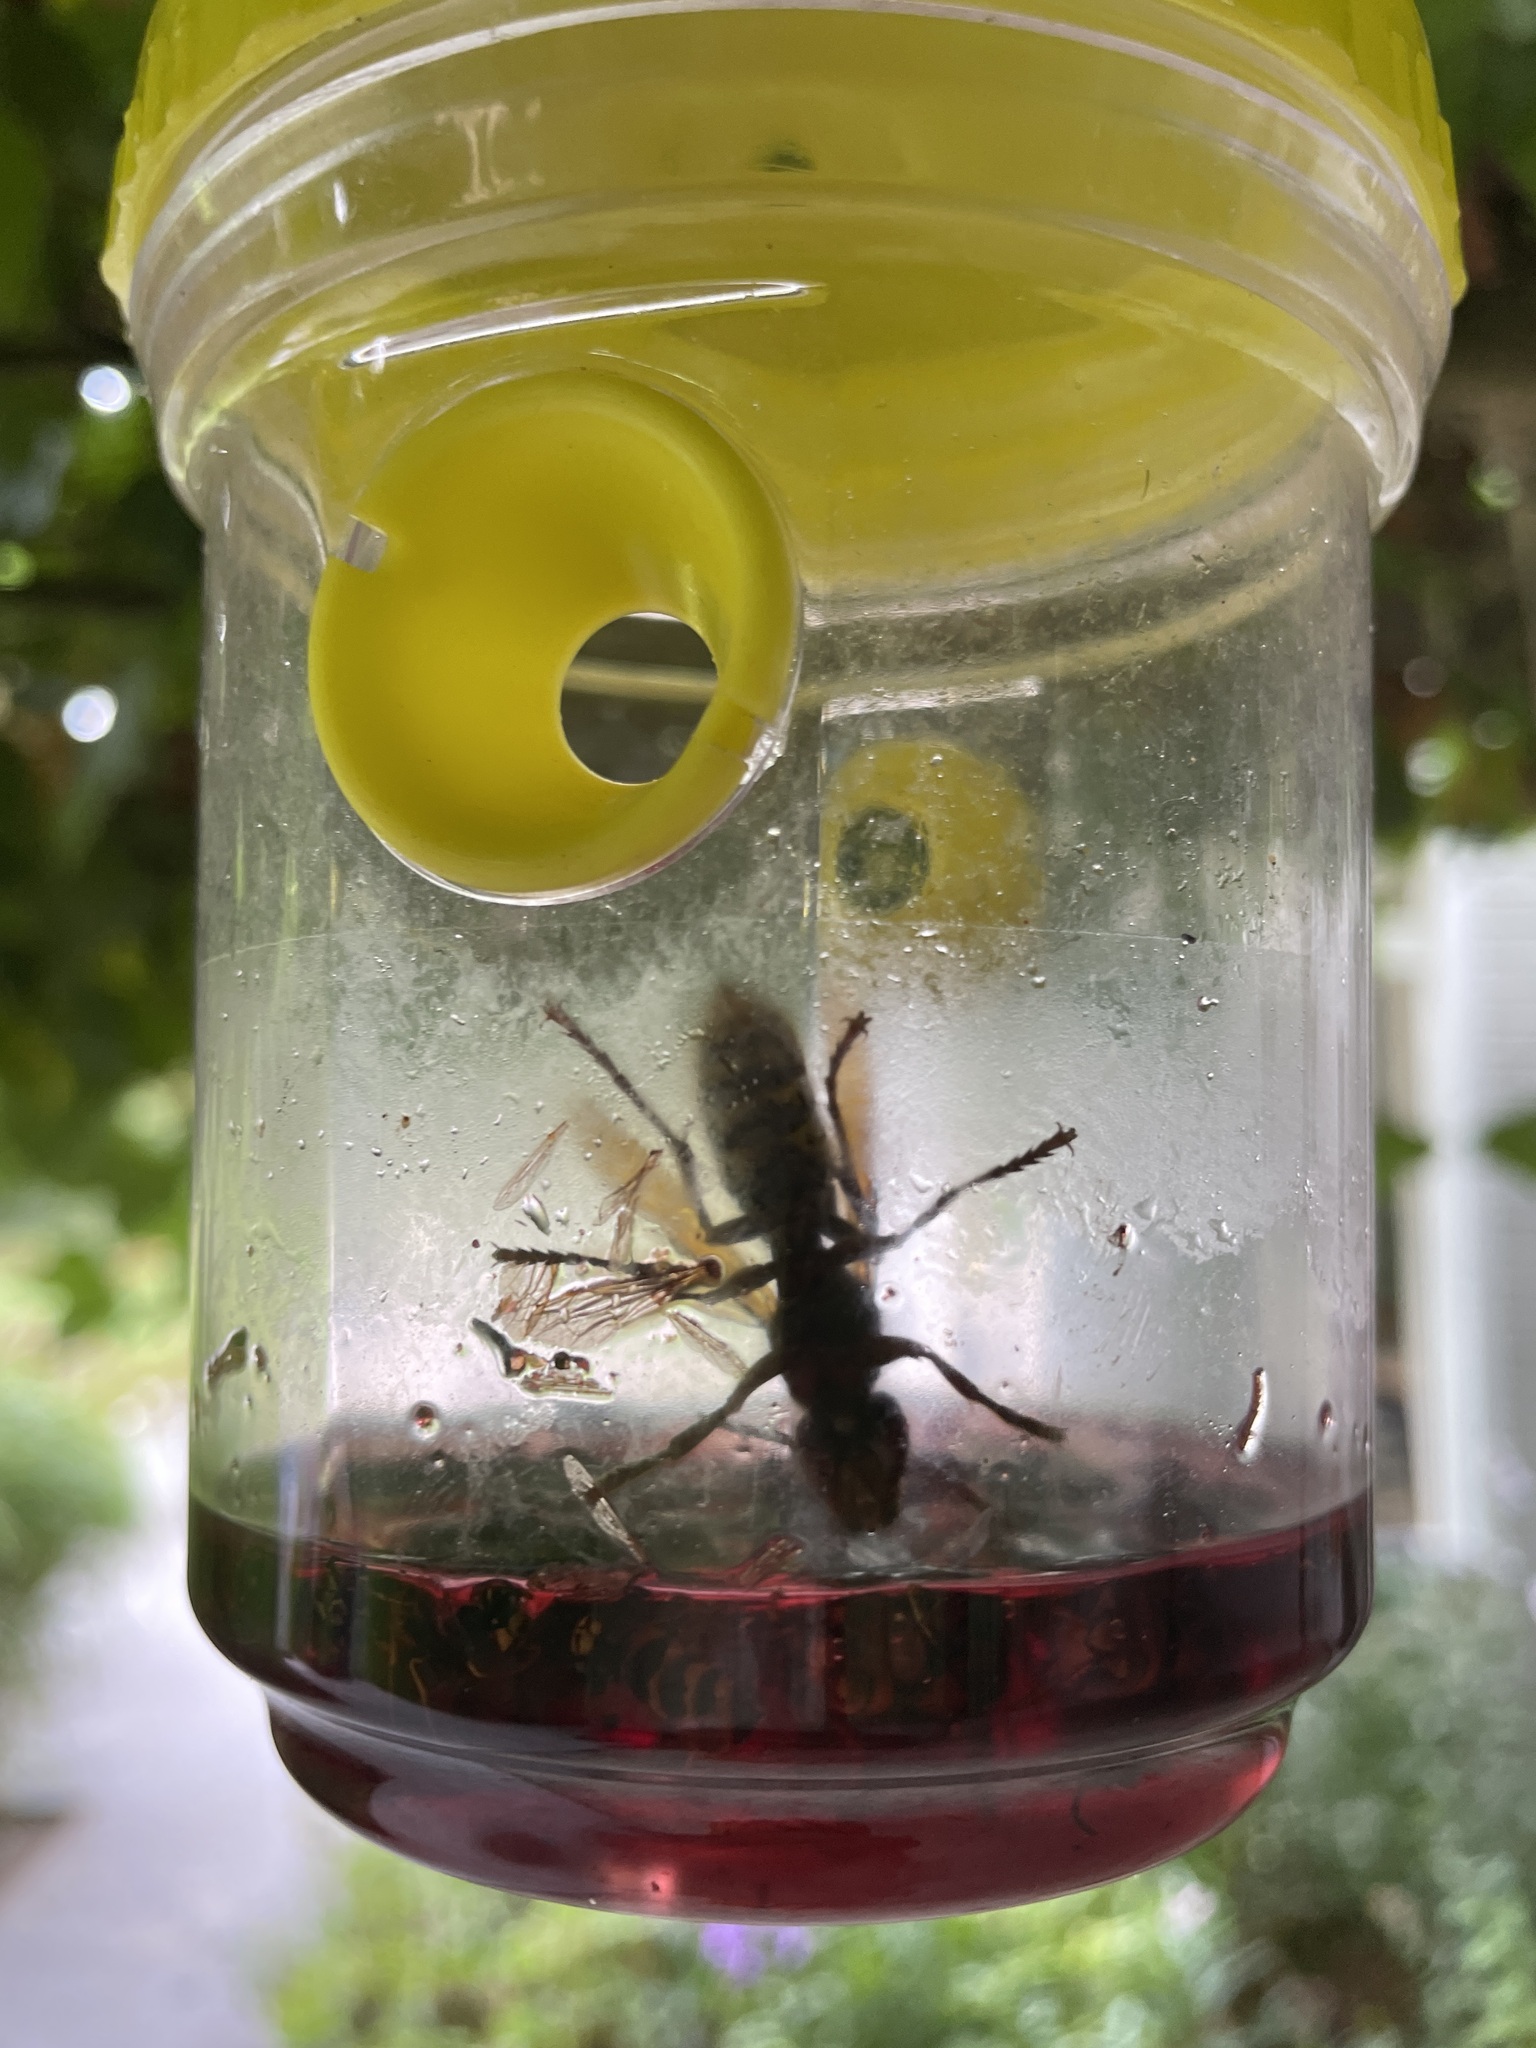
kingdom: Animalia
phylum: Arthropoda
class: Insecta
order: Hymenoptera
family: Vespidae
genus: Vespa
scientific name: Vespa crabro
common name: Hornet
